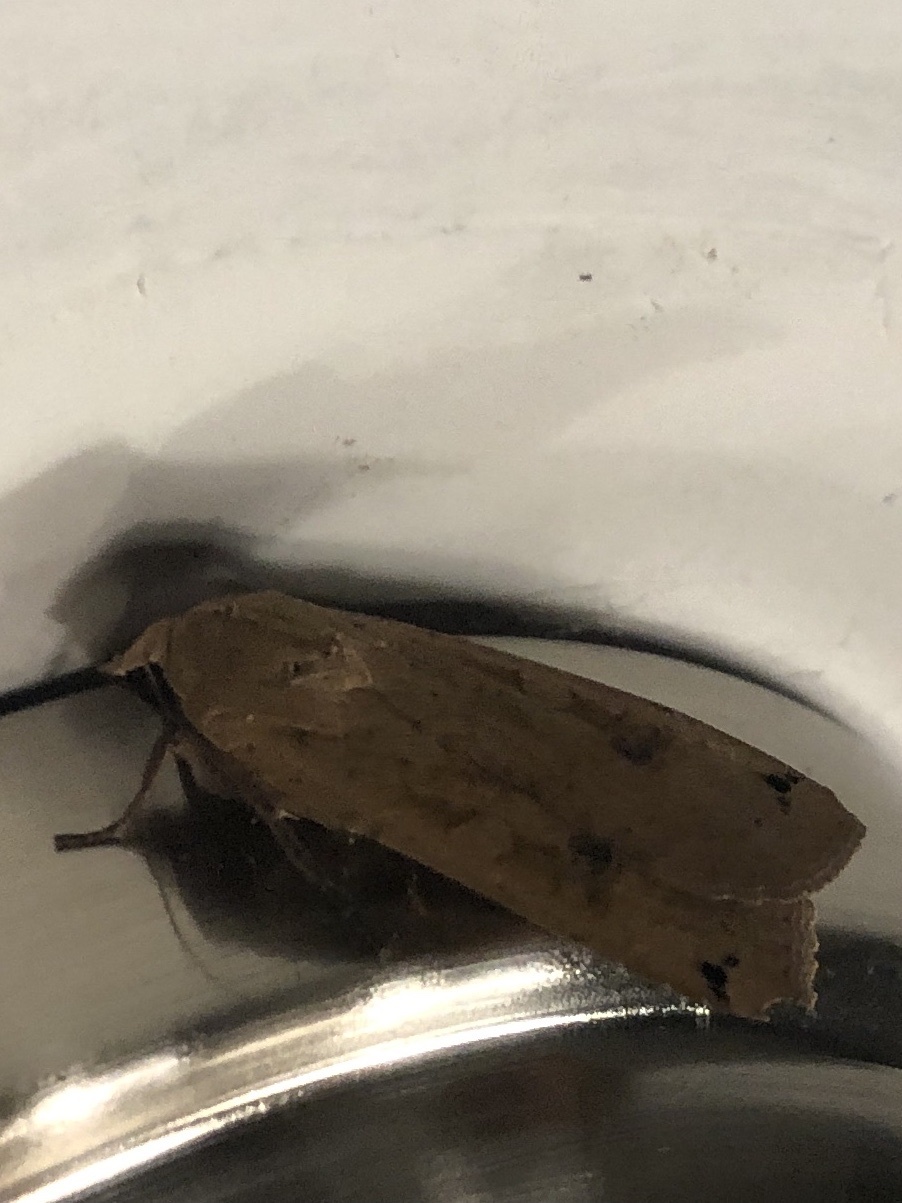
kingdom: Animalia
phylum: Arthropoda
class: Insecta
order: Lepidoptera
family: Noctuidae
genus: Noctua
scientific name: Noctua pronuba
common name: Large yellow underwing
